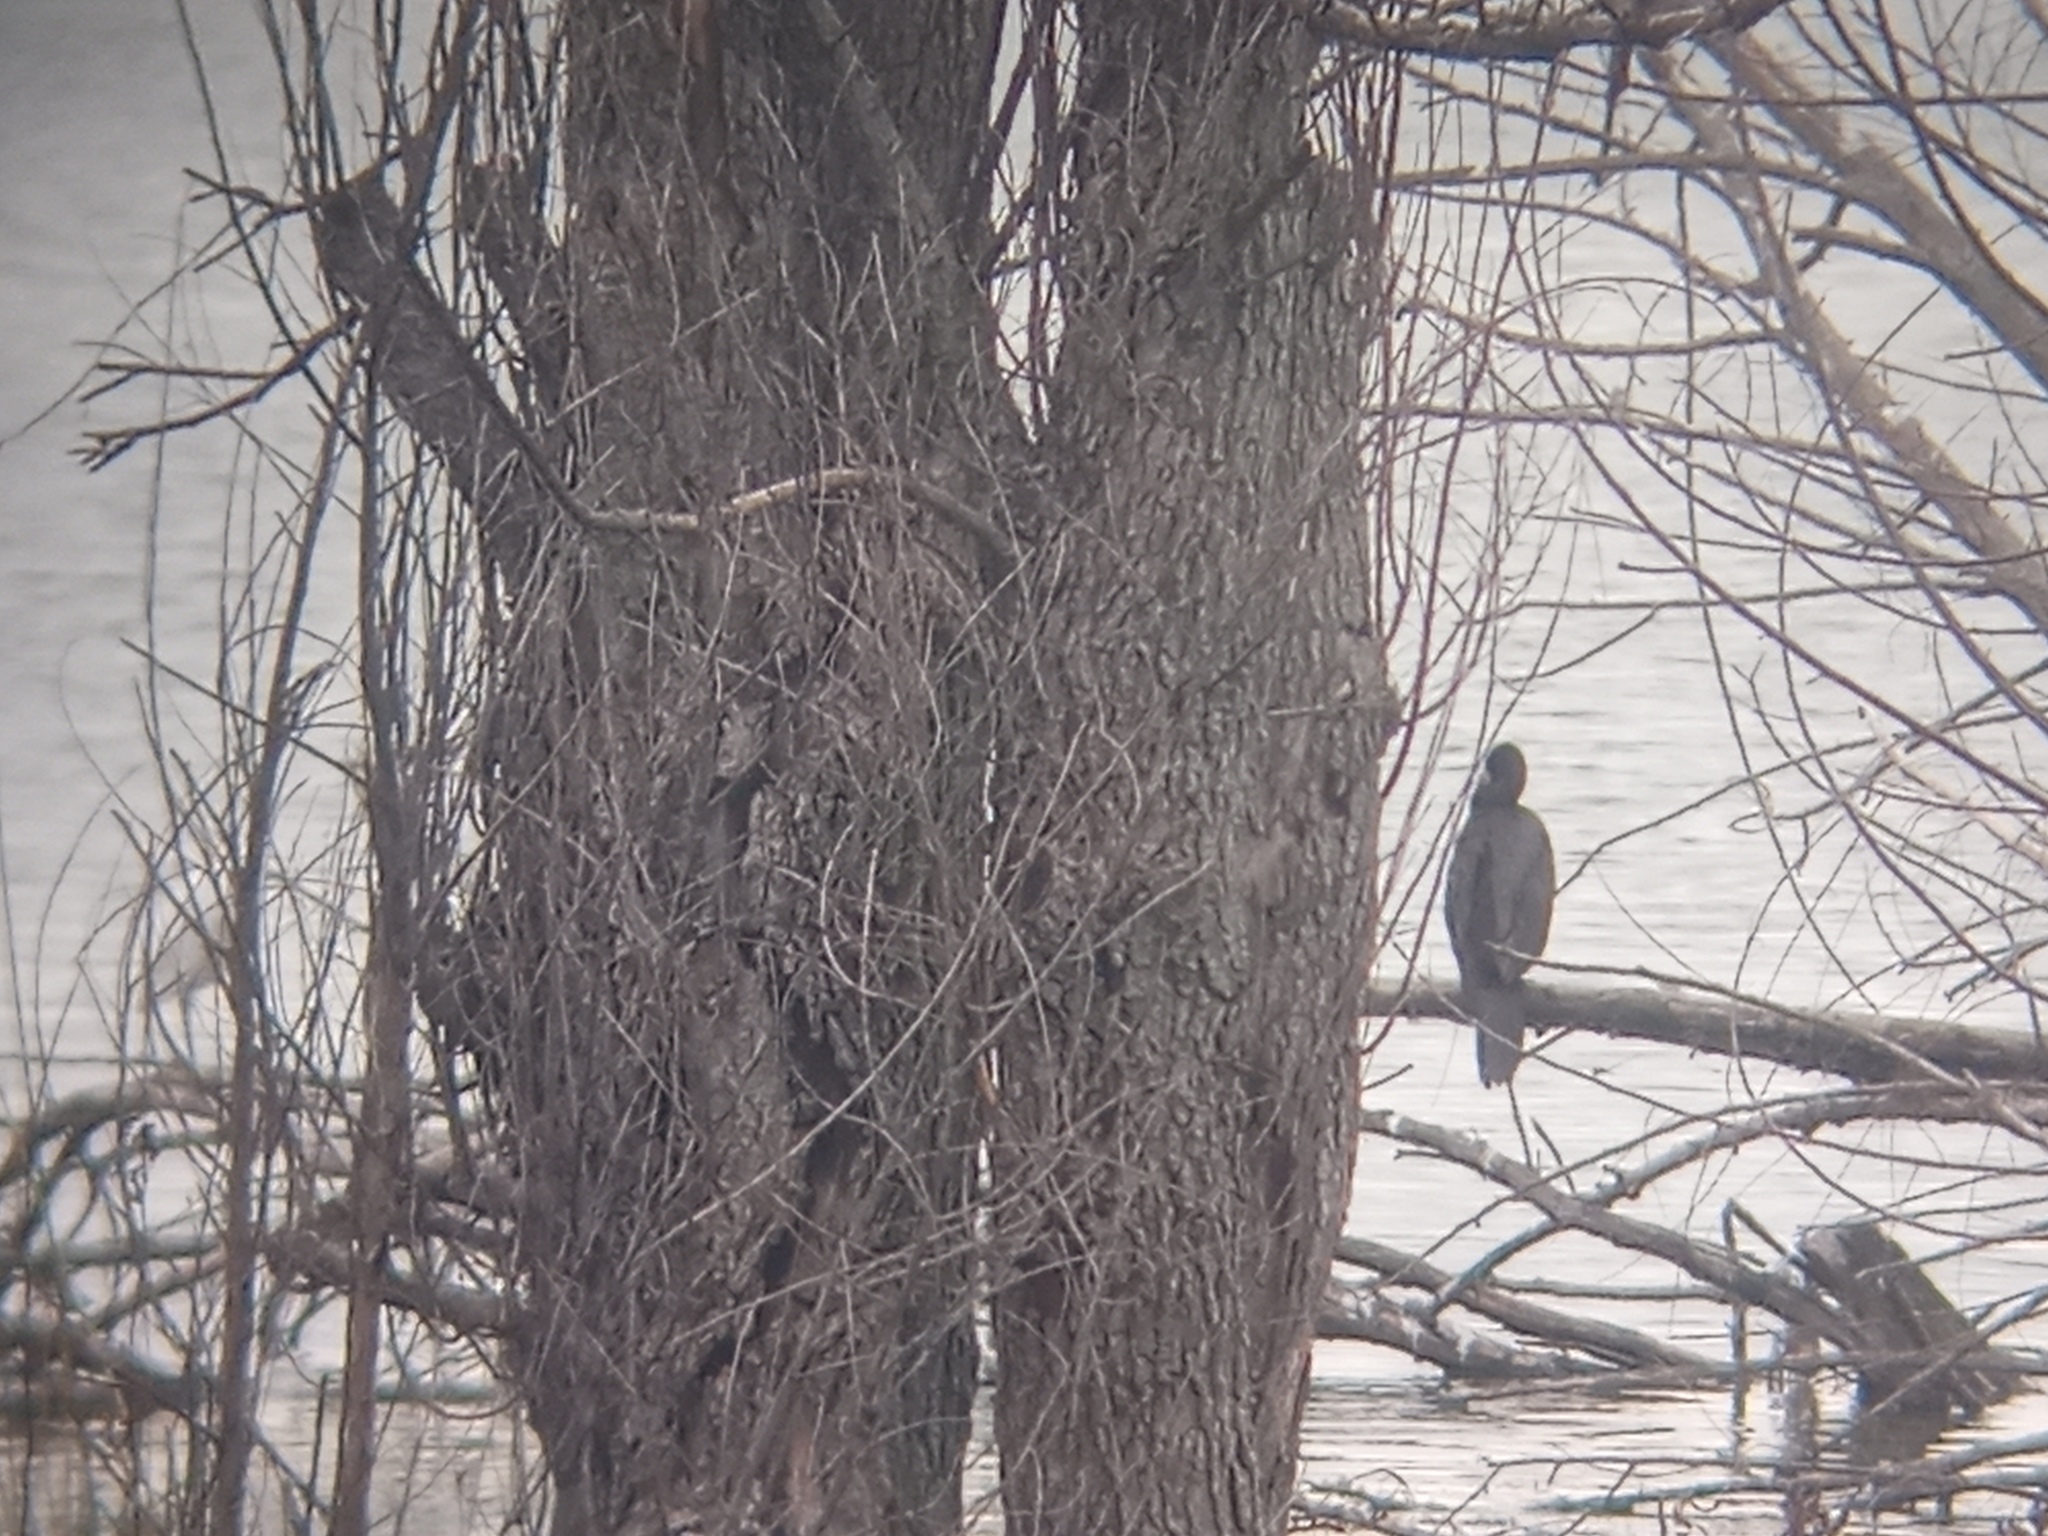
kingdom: Animalia
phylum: Chordata
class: Aves
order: Suliformes
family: Phalacrocoracidae
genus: Phalacrocorax
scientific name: Phalacrocorax brasilianus
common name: Neotropic cormorant
